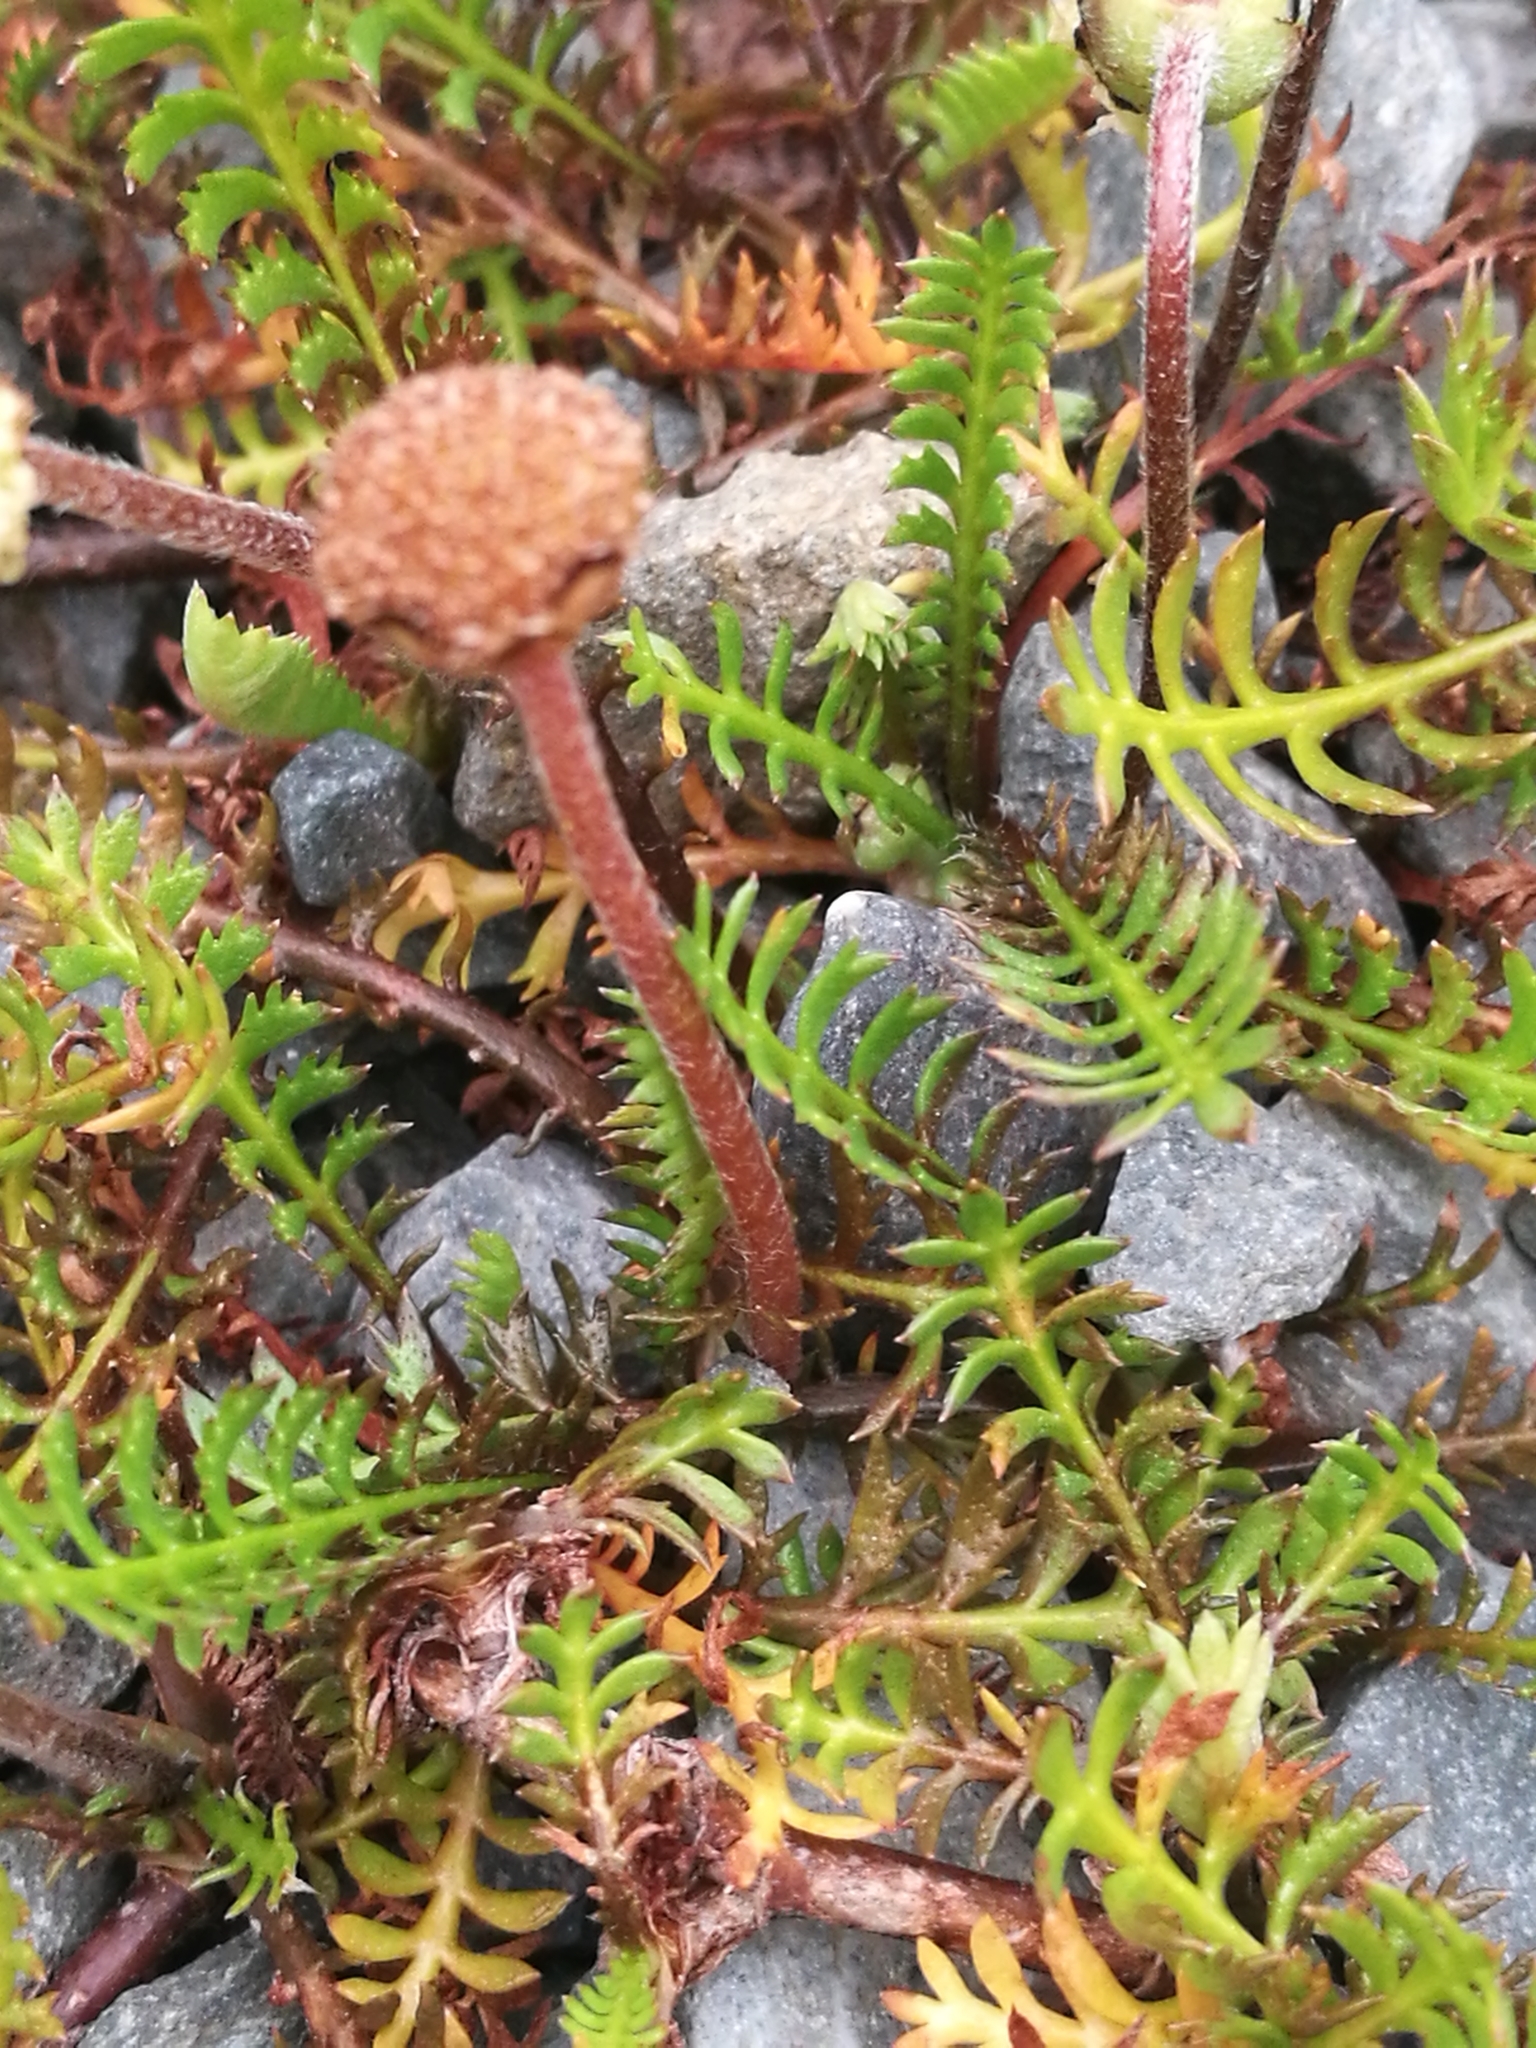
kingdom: Plantae
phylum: Tracheophyta
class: Magnoliopsida
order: Asterales
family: Asteraceae
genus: Leptinella
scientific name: Leptinella pyrethrifolia
